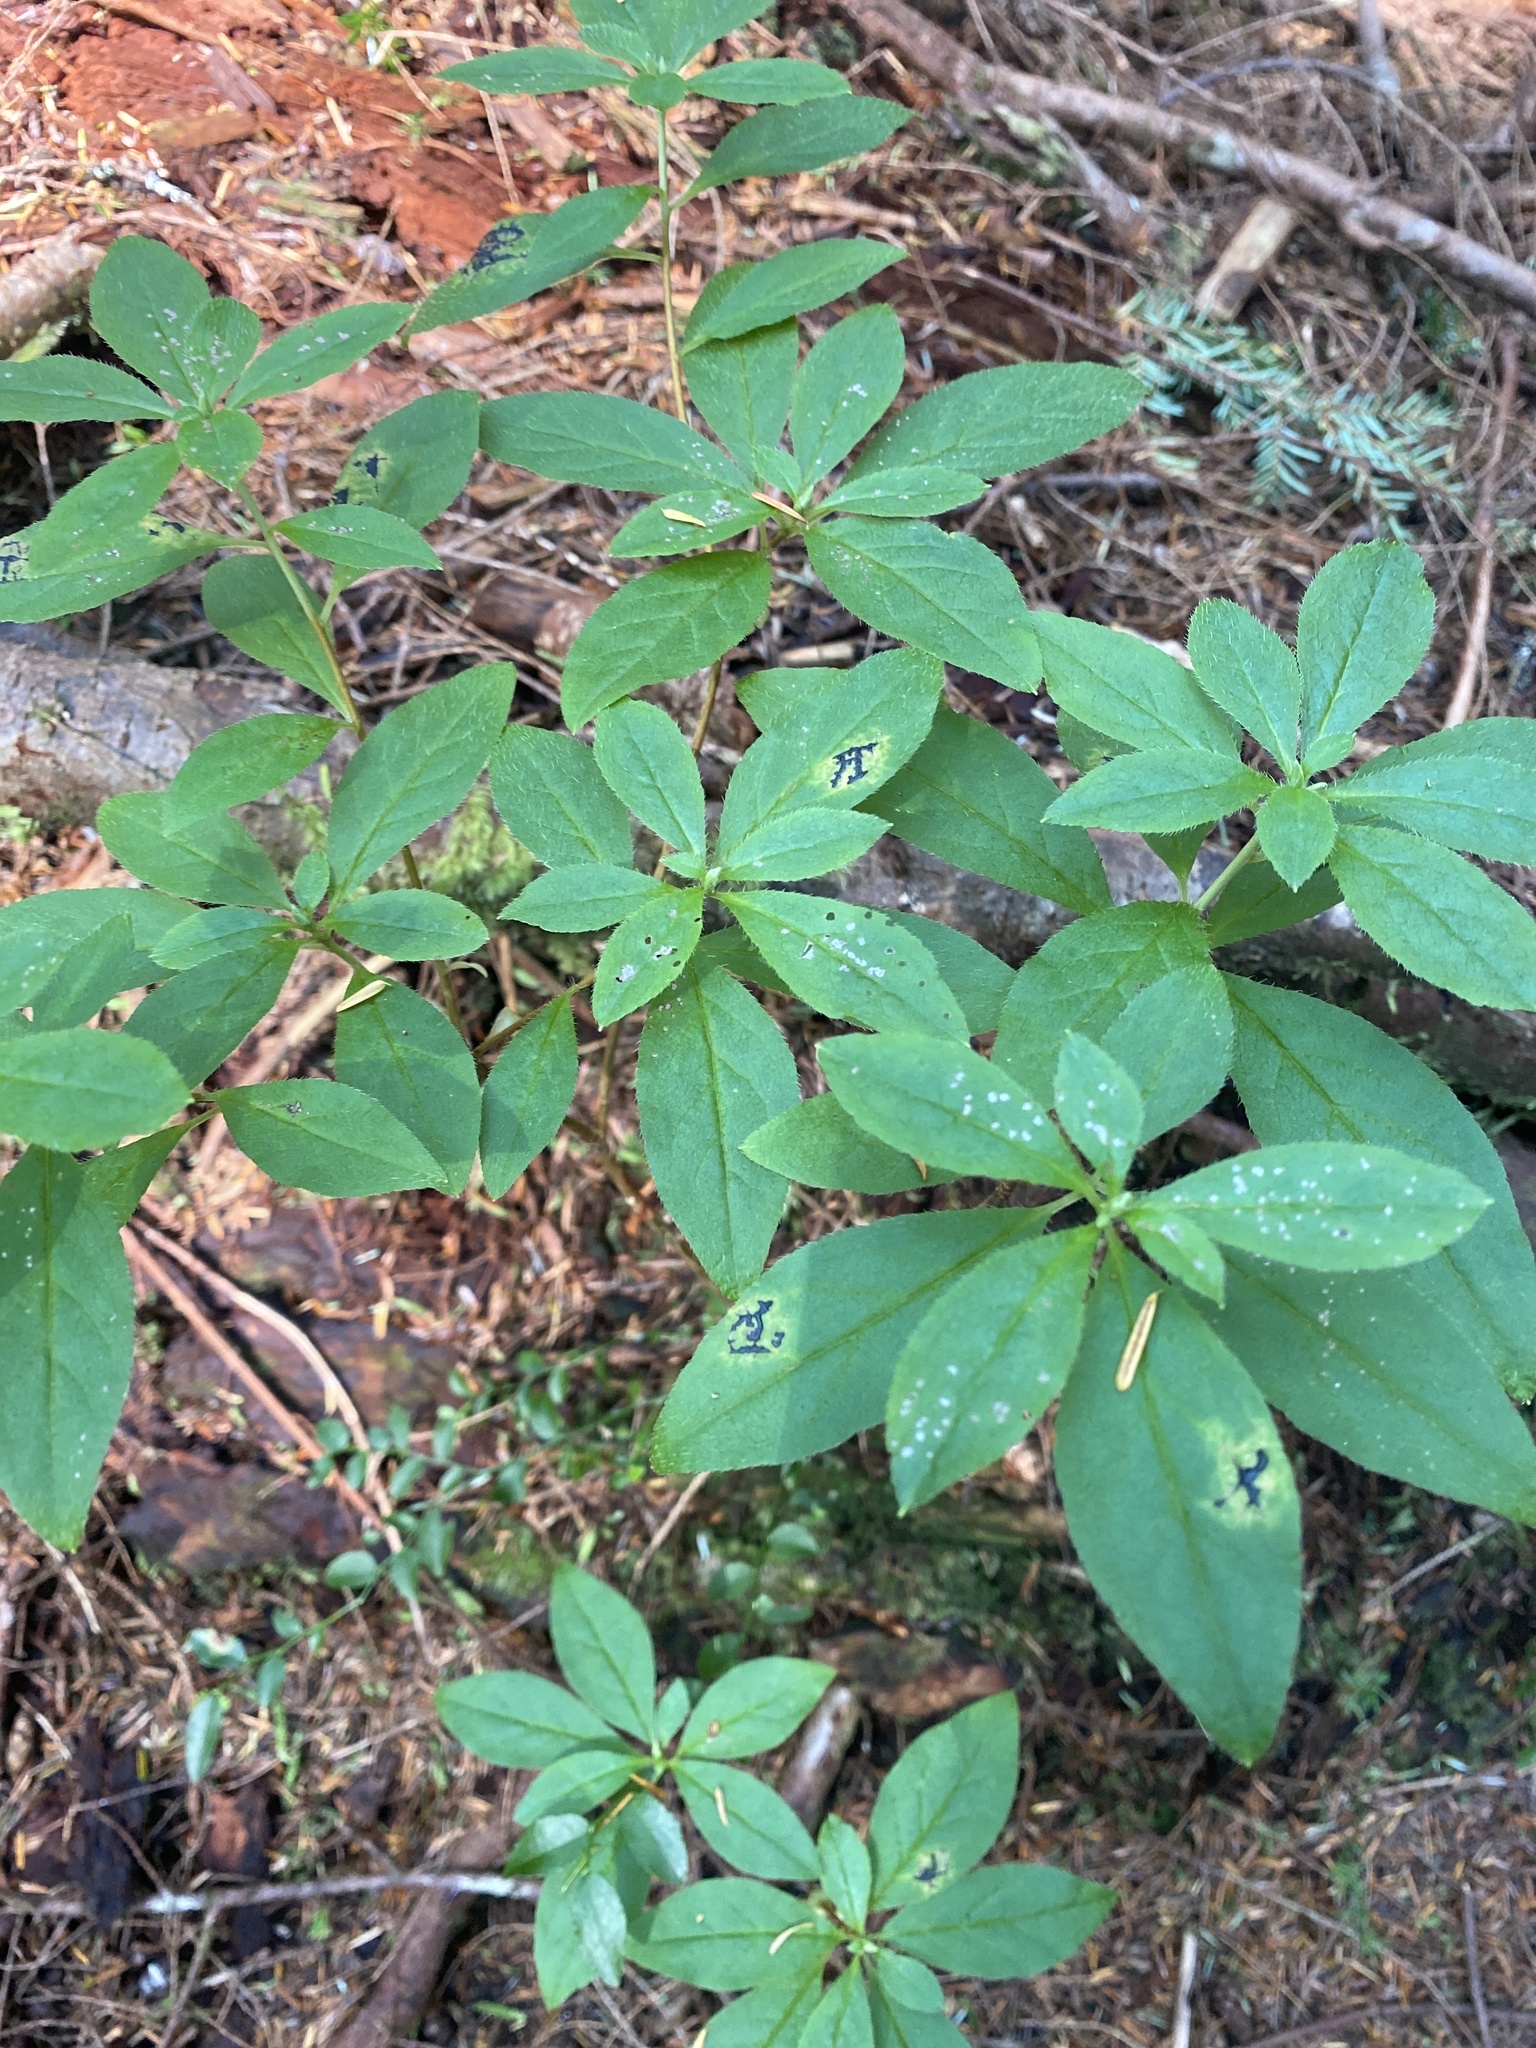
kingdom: Plantae
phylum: Tracheophyta
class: Magnoliopsida
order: Ericales
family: Ericaceae
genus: Rhododendron
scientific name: Rhododendron menziesii
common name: Pacific menziesia
